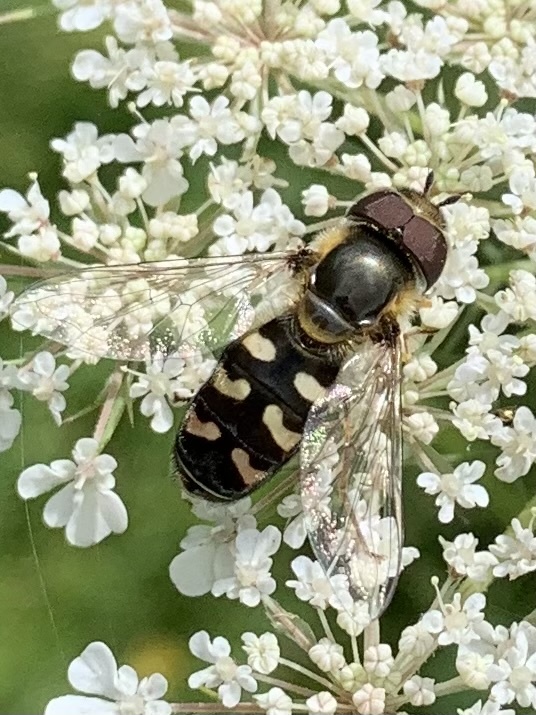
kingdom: Animalia
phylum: Arthropoda
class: Insecta
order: Diptera
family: Syrphidae
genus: Scaeva
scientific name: Scaeva selenitica
